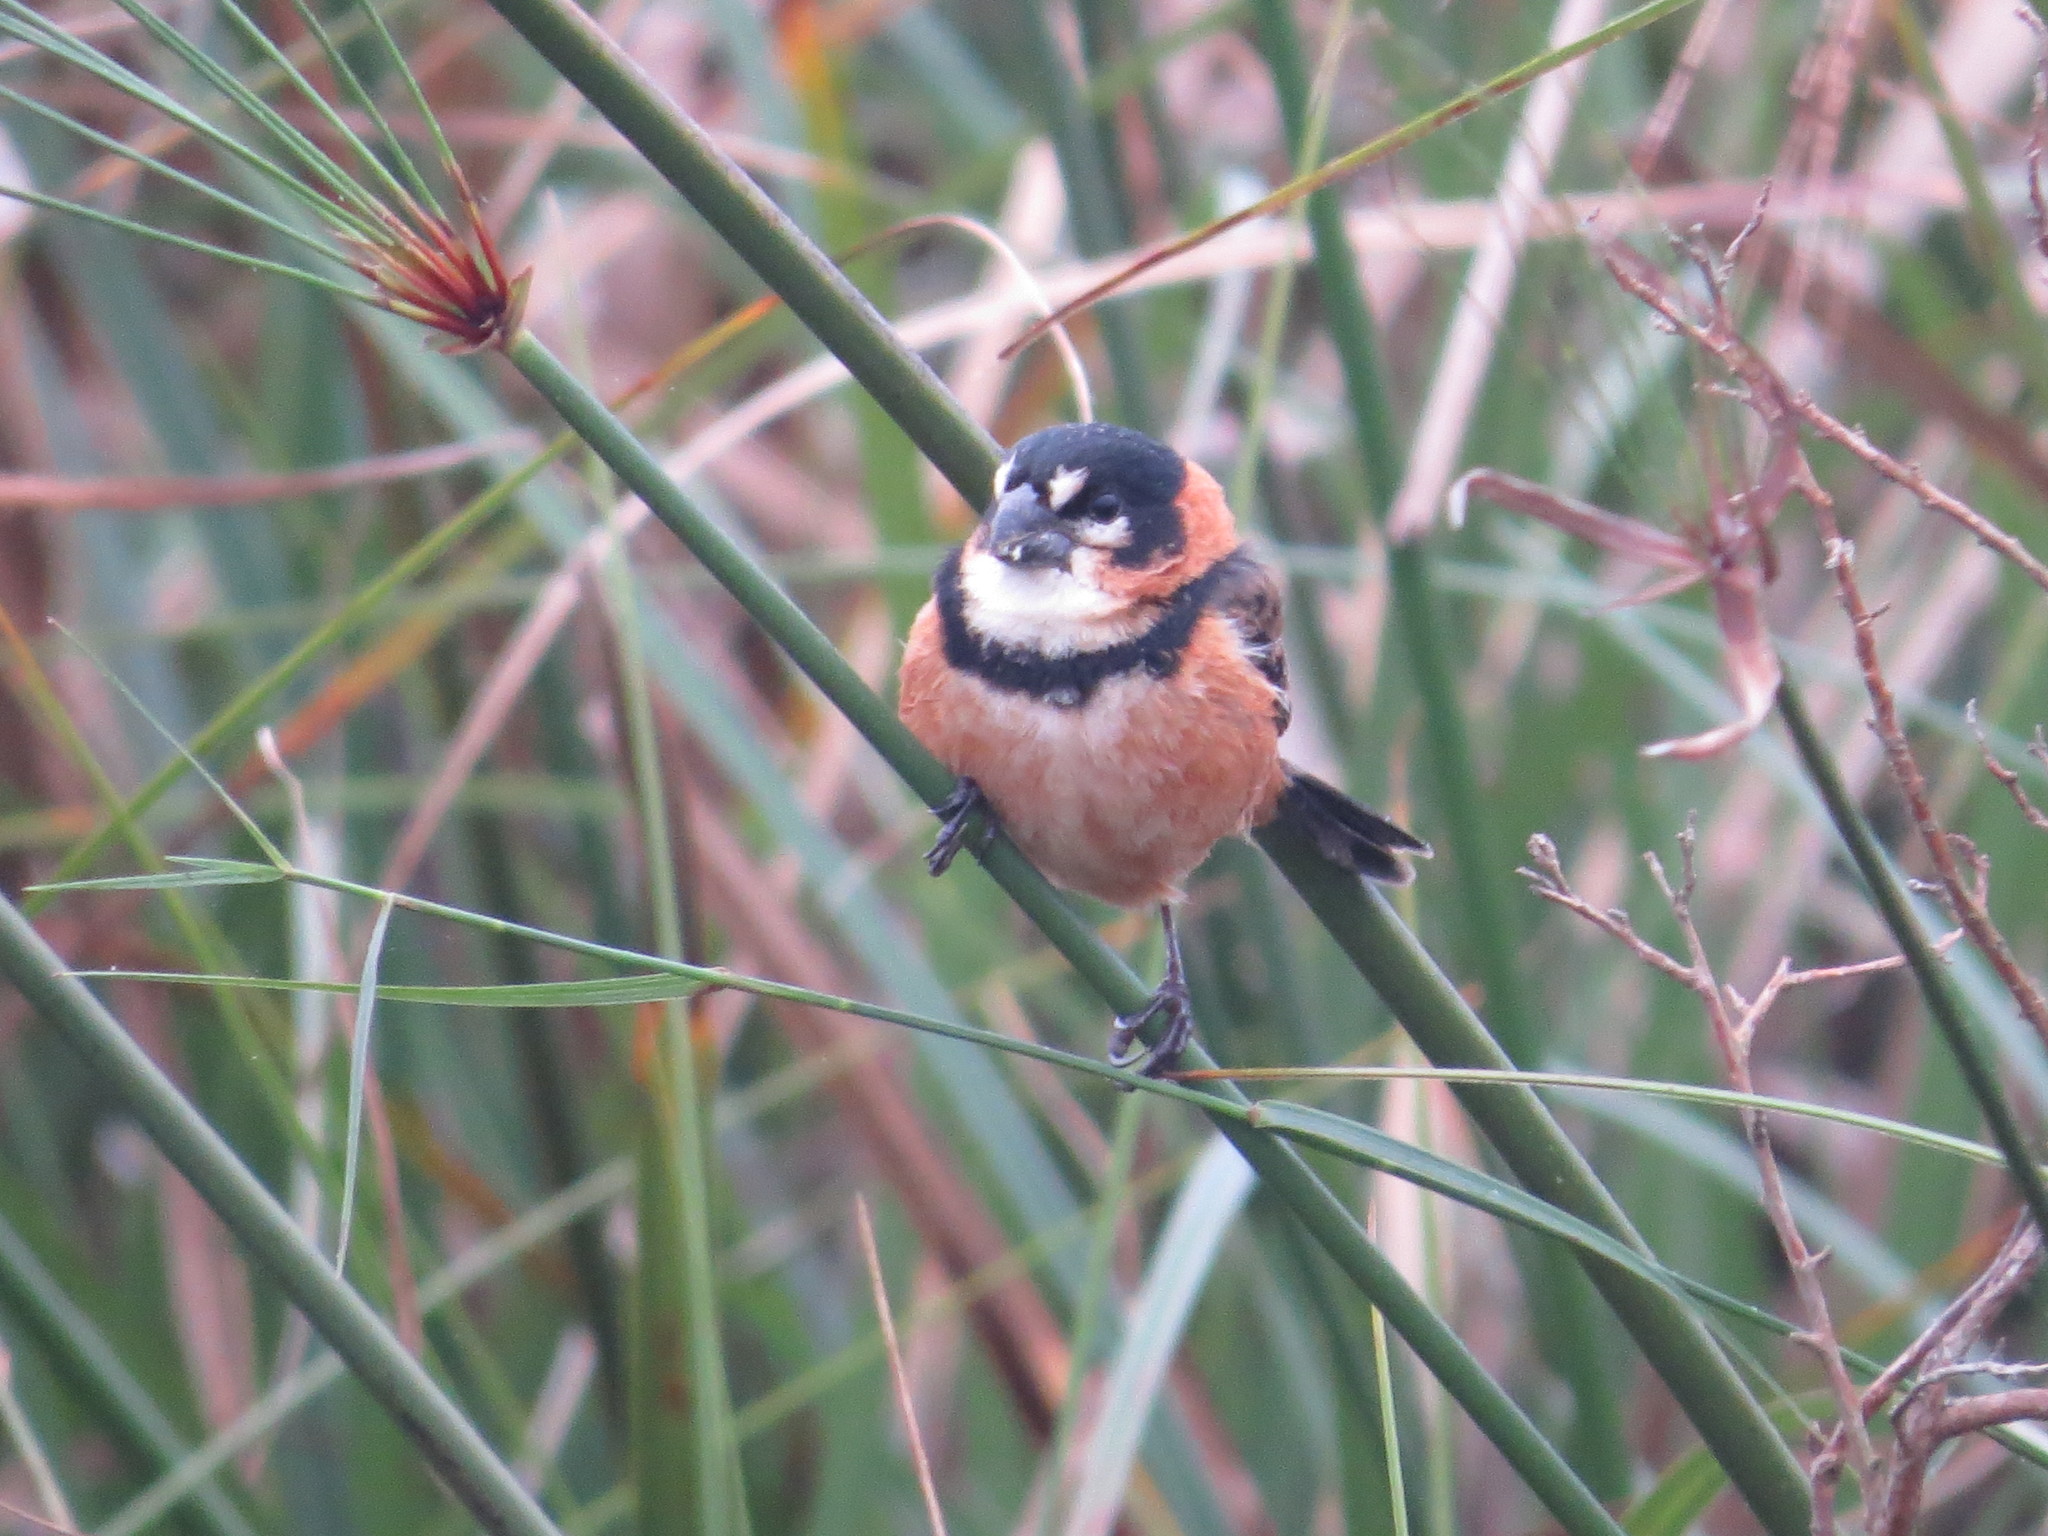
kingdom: Animalia
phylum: Chordata
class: Aves
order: Passeriformes
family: Thraupidae
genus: Sporophila
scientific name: Sporophila collaris
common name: Rusty-collared seedeater
